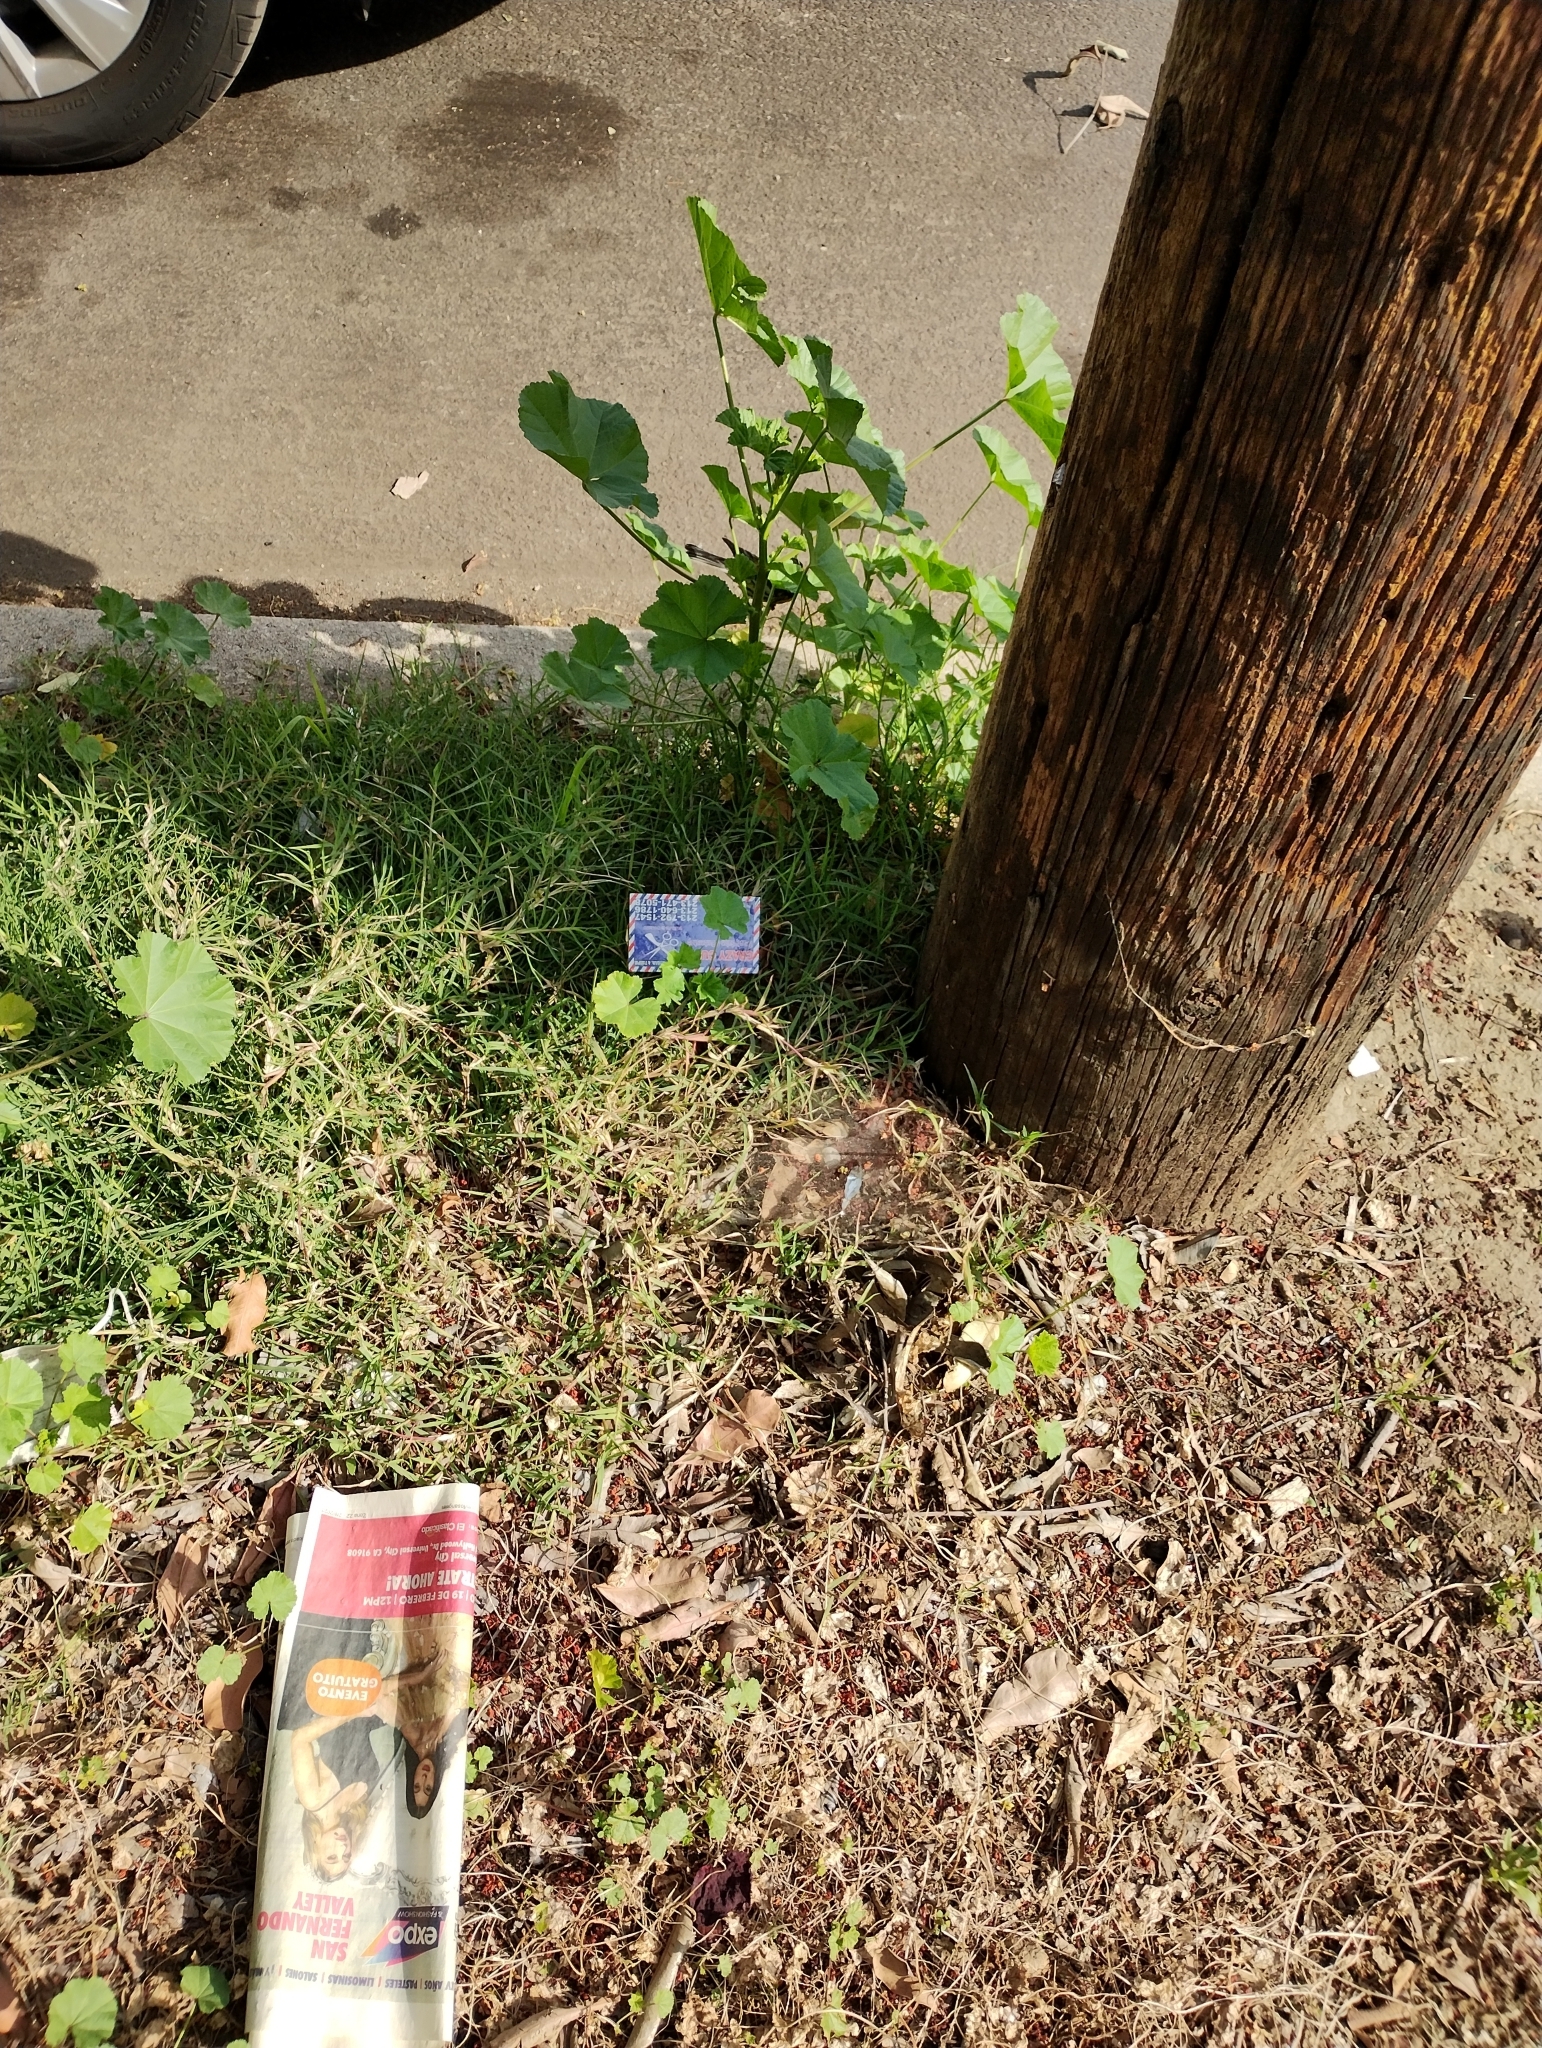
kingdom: Animalia
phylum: Chordata
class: Aves
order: Passeriformes
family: Parulidae
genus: Setophaga
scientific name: Setophaga townsendi
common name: Townsend's warbler
